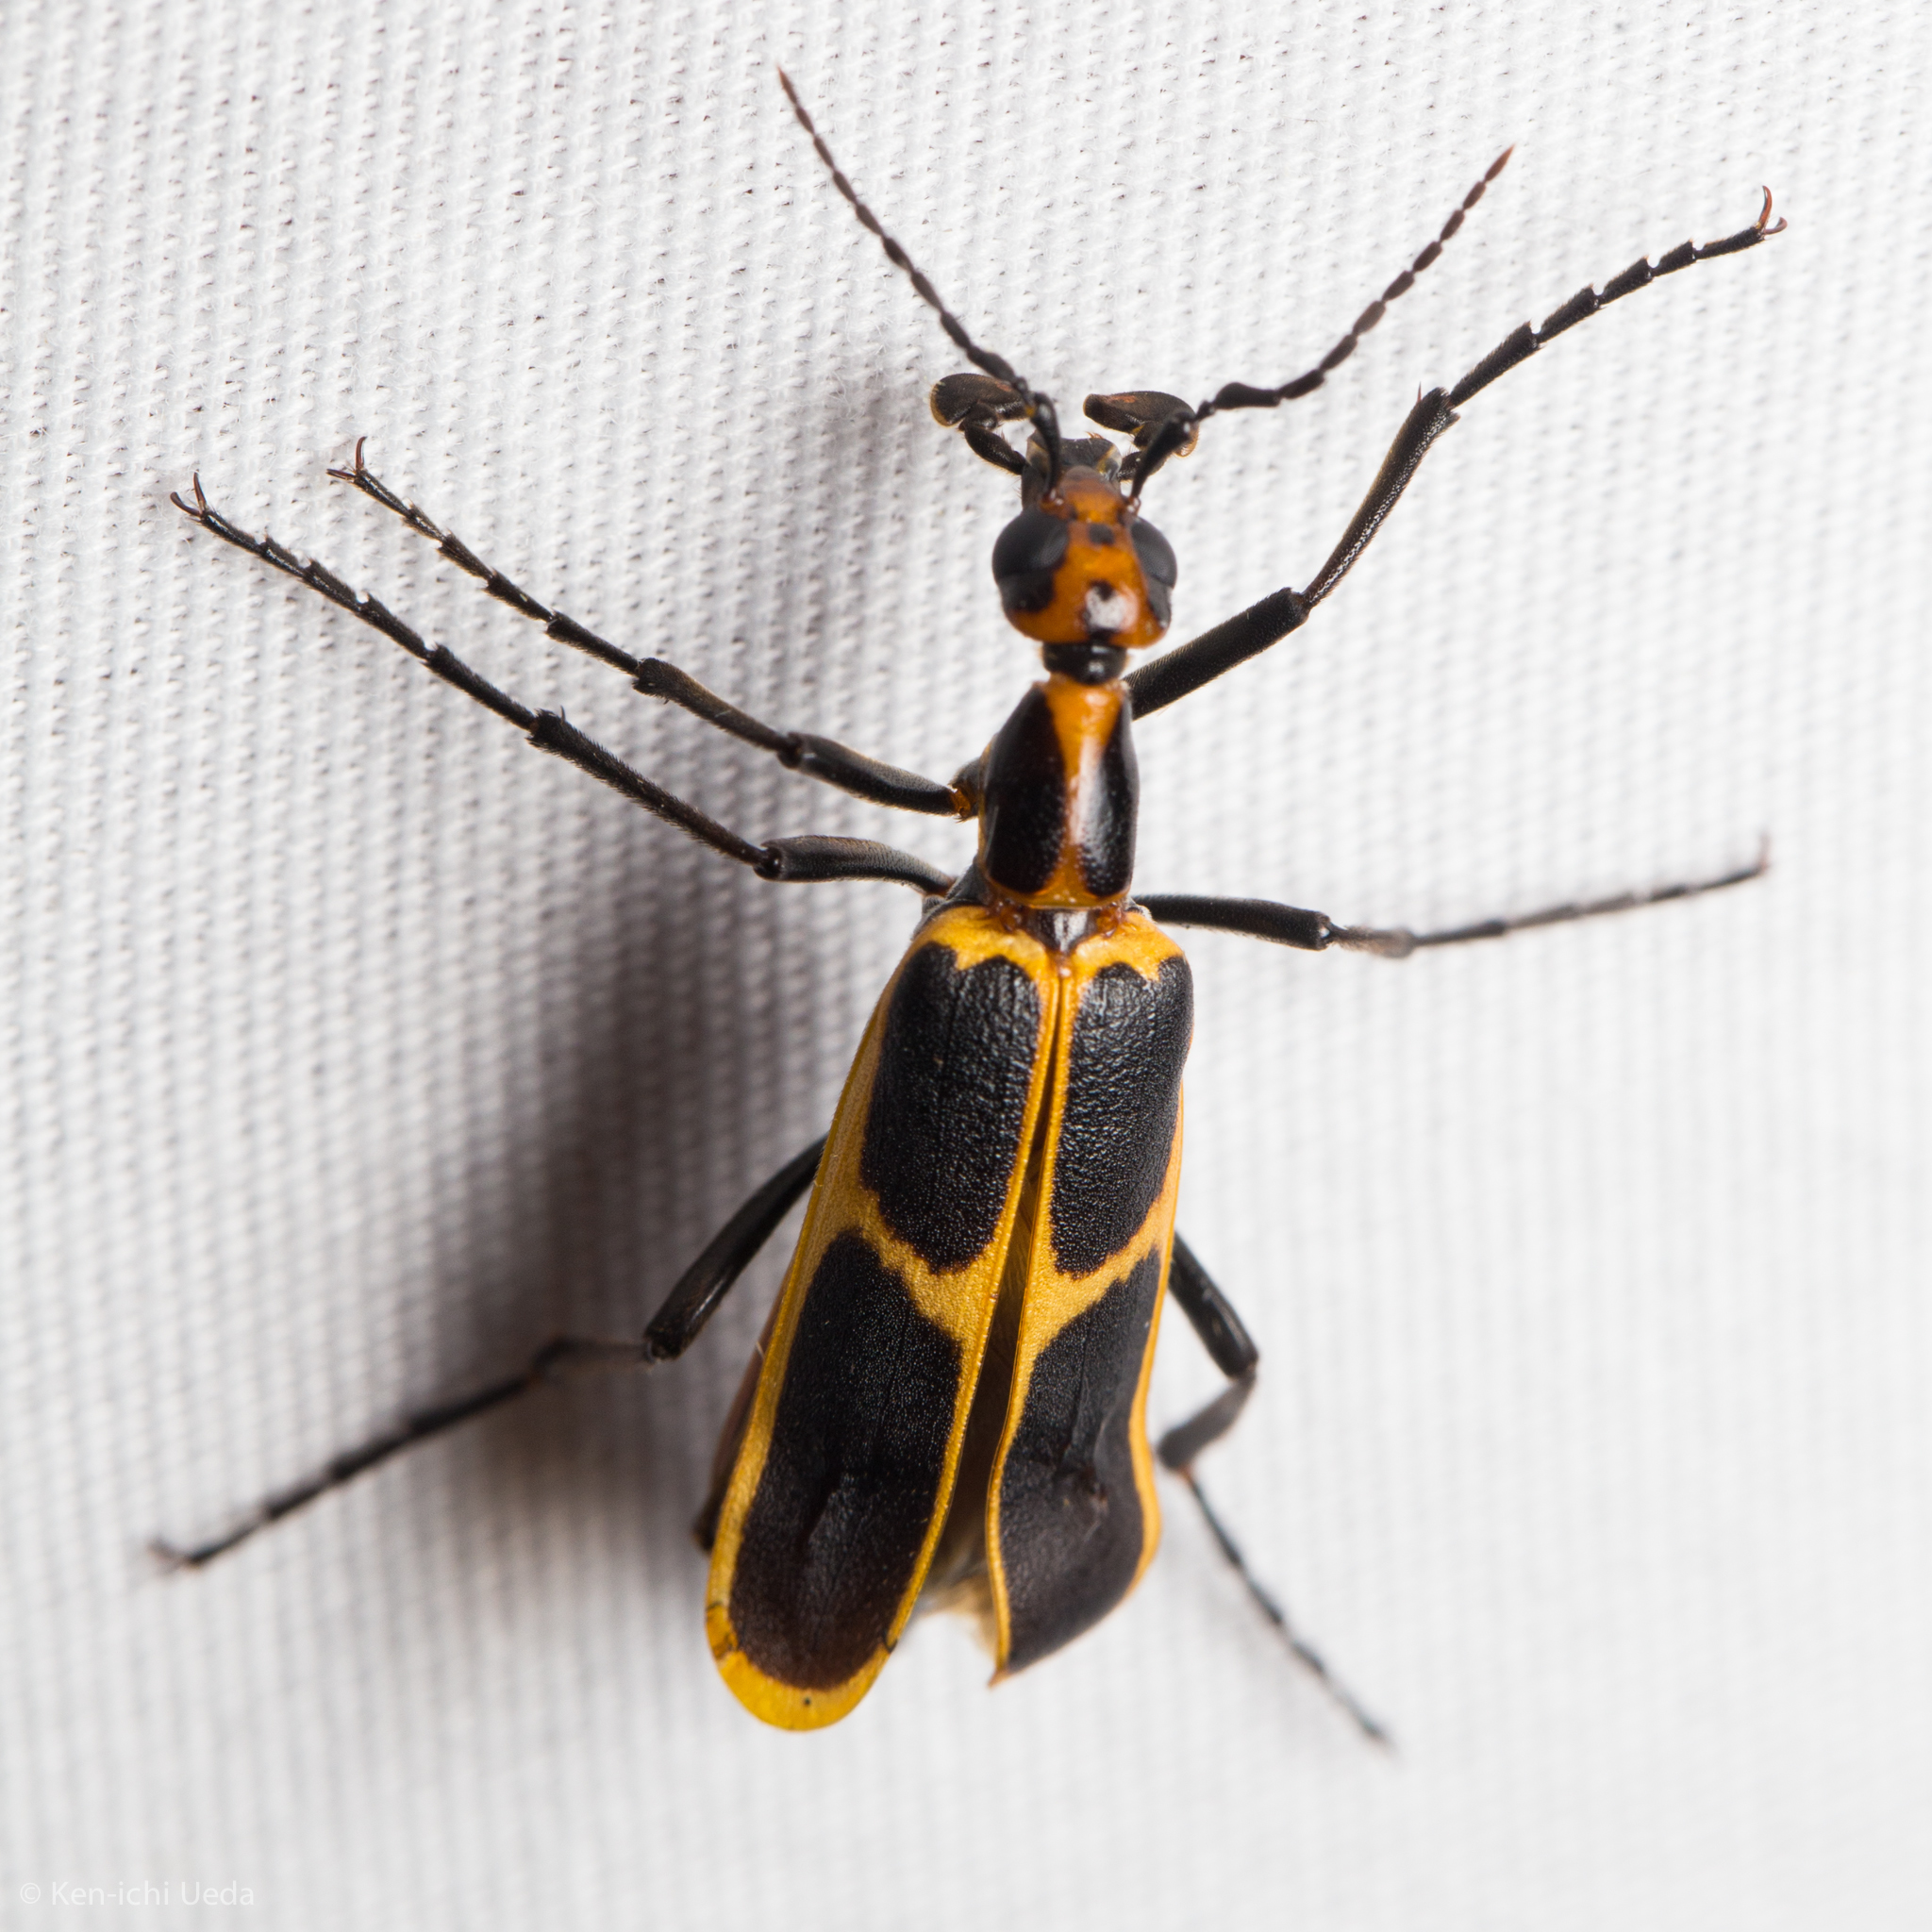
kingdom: Animalia
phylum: Arthropoda
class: Insecta
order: Coleoptera
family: Meloidae
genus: Pyrota
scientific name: Pyrota
